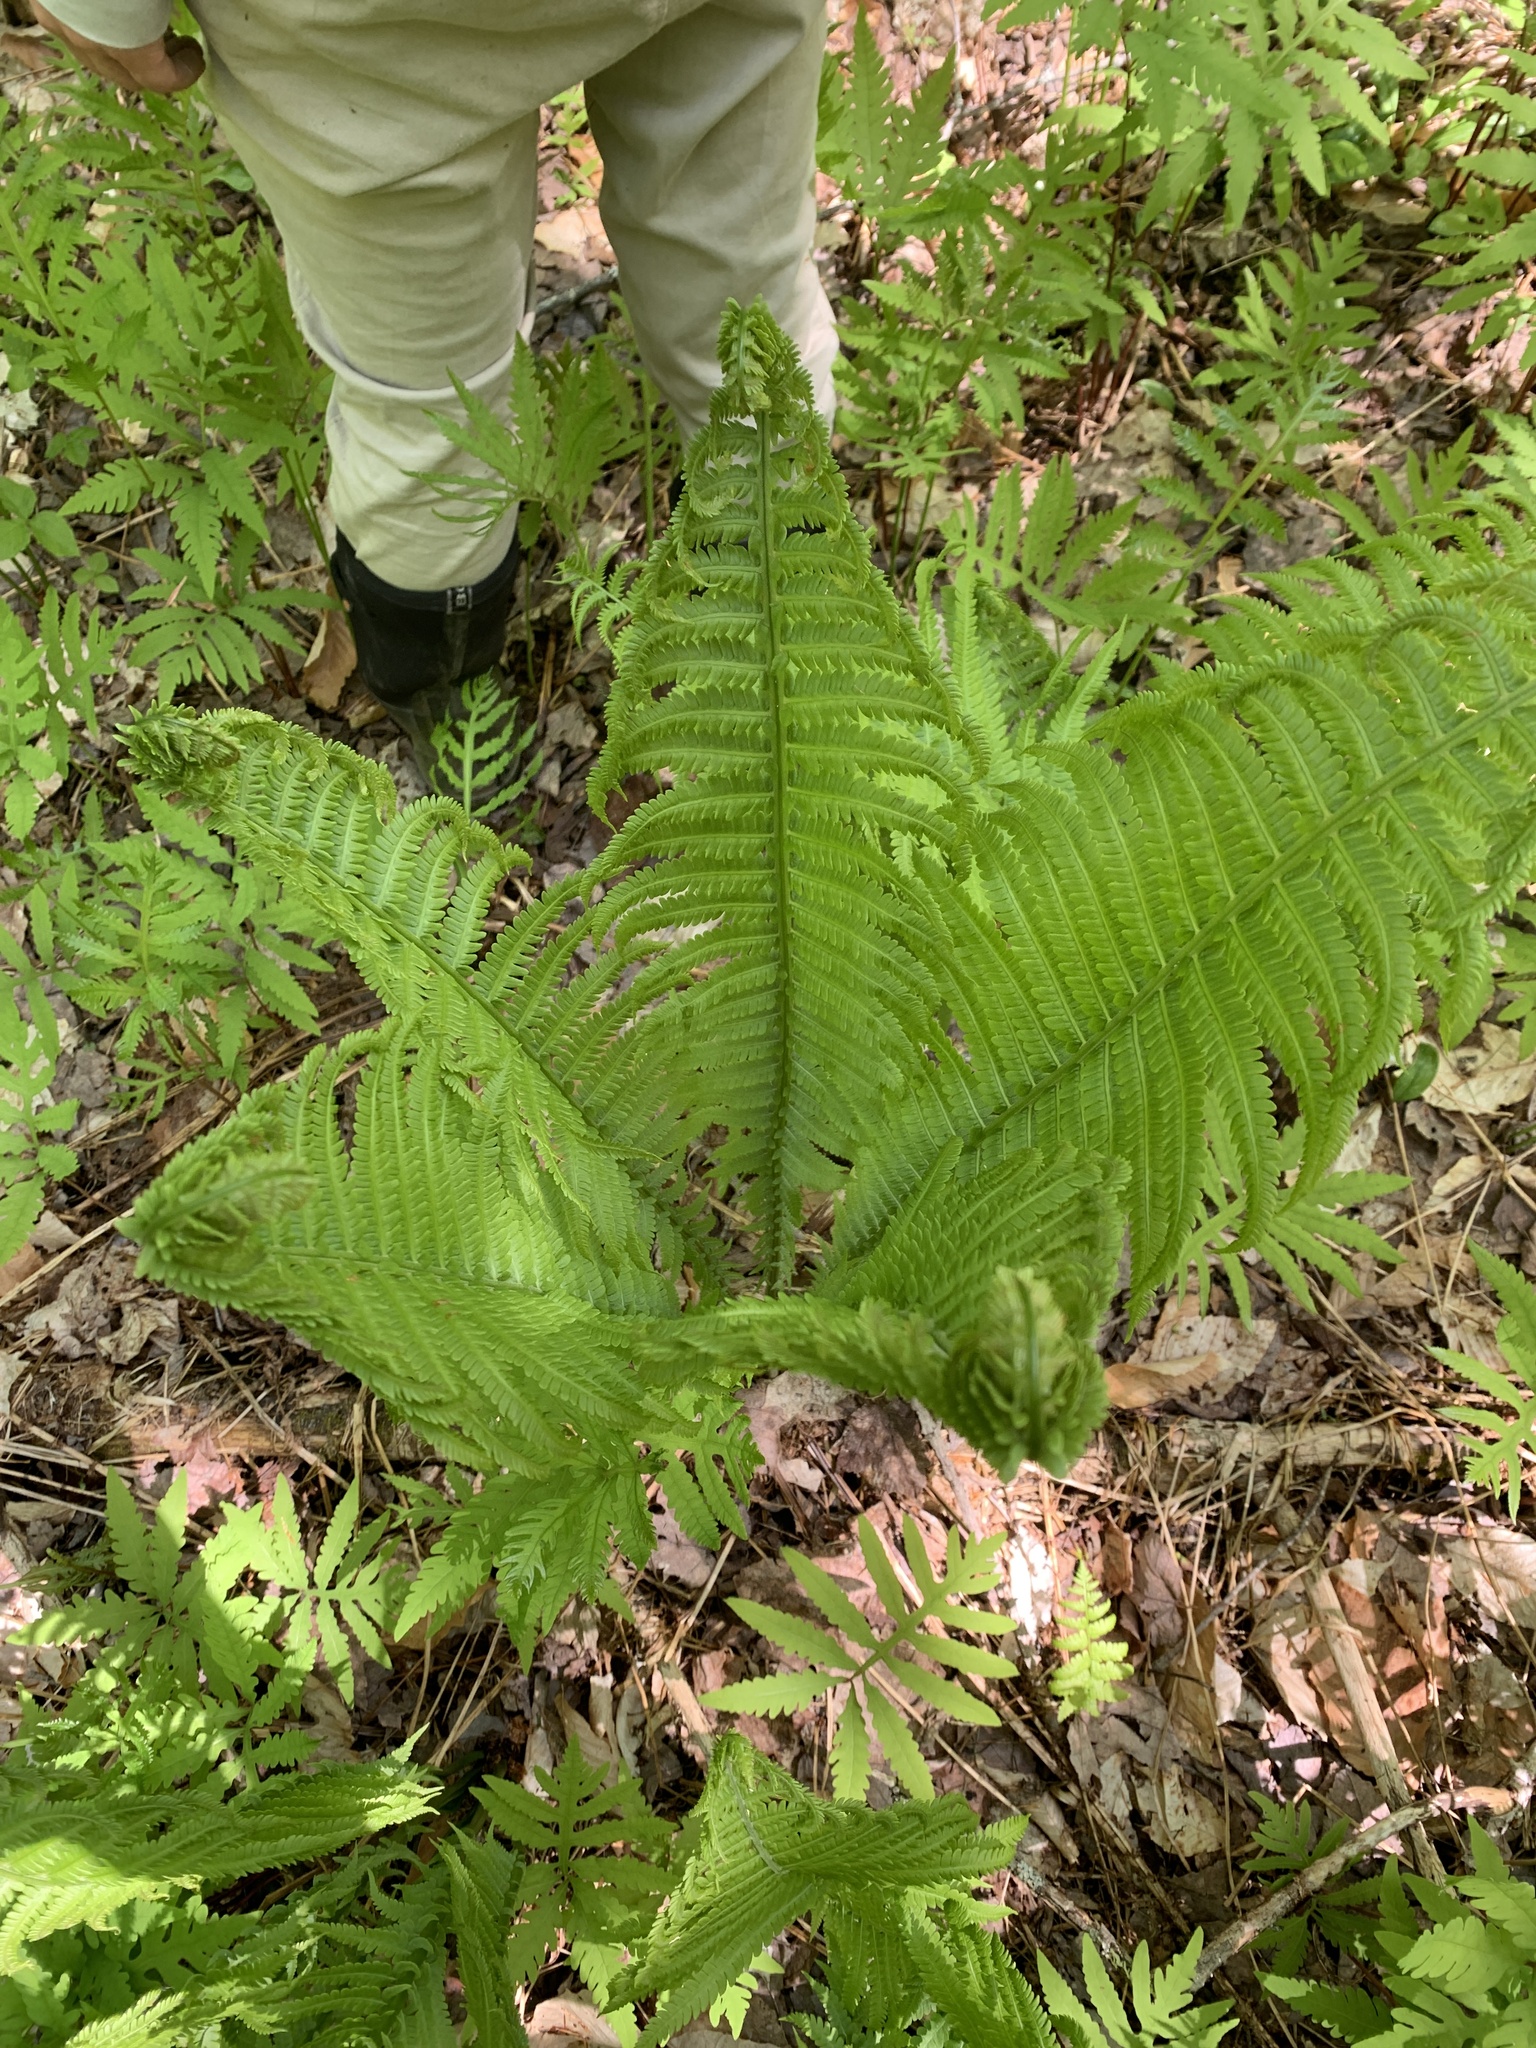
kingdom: Plantae
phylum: Tracheophyta
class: Polypodiopsida
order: Polypodiales
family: Onocleaceae
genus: Matteuccia
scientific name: Matteuccia struthiopteris
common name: Ostrich fern
